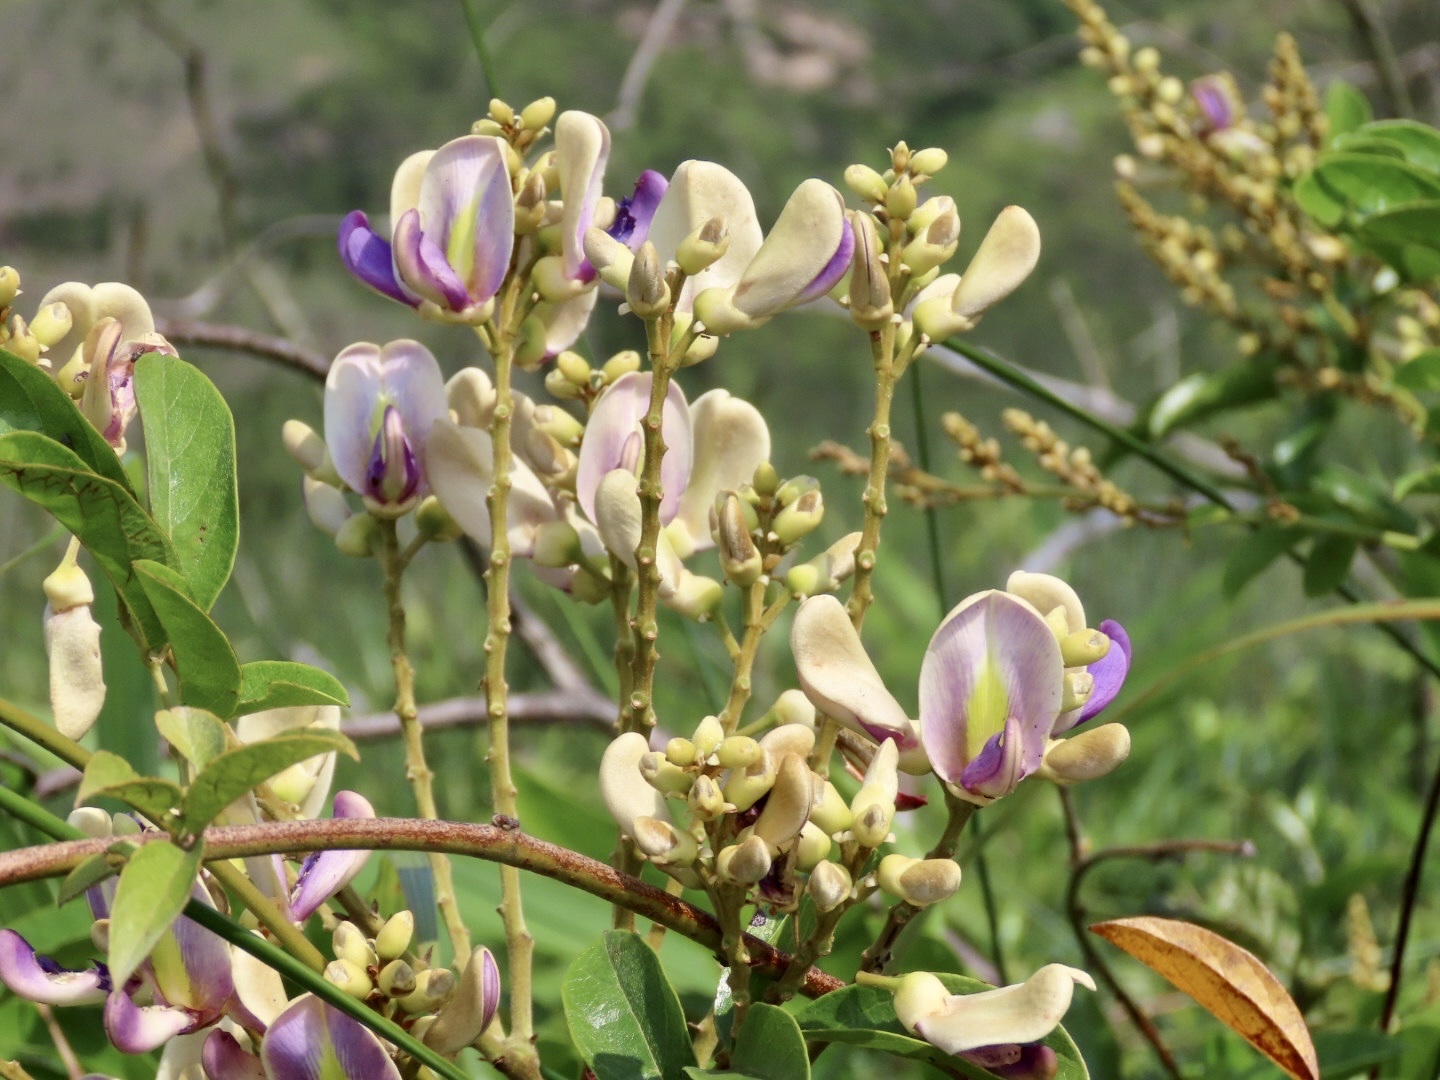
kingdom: Plantae
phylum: Tracheophyta
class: Magnoliopsida
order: Fabales
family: Fabaceae
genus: Callerya
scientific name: Callerya nitida
